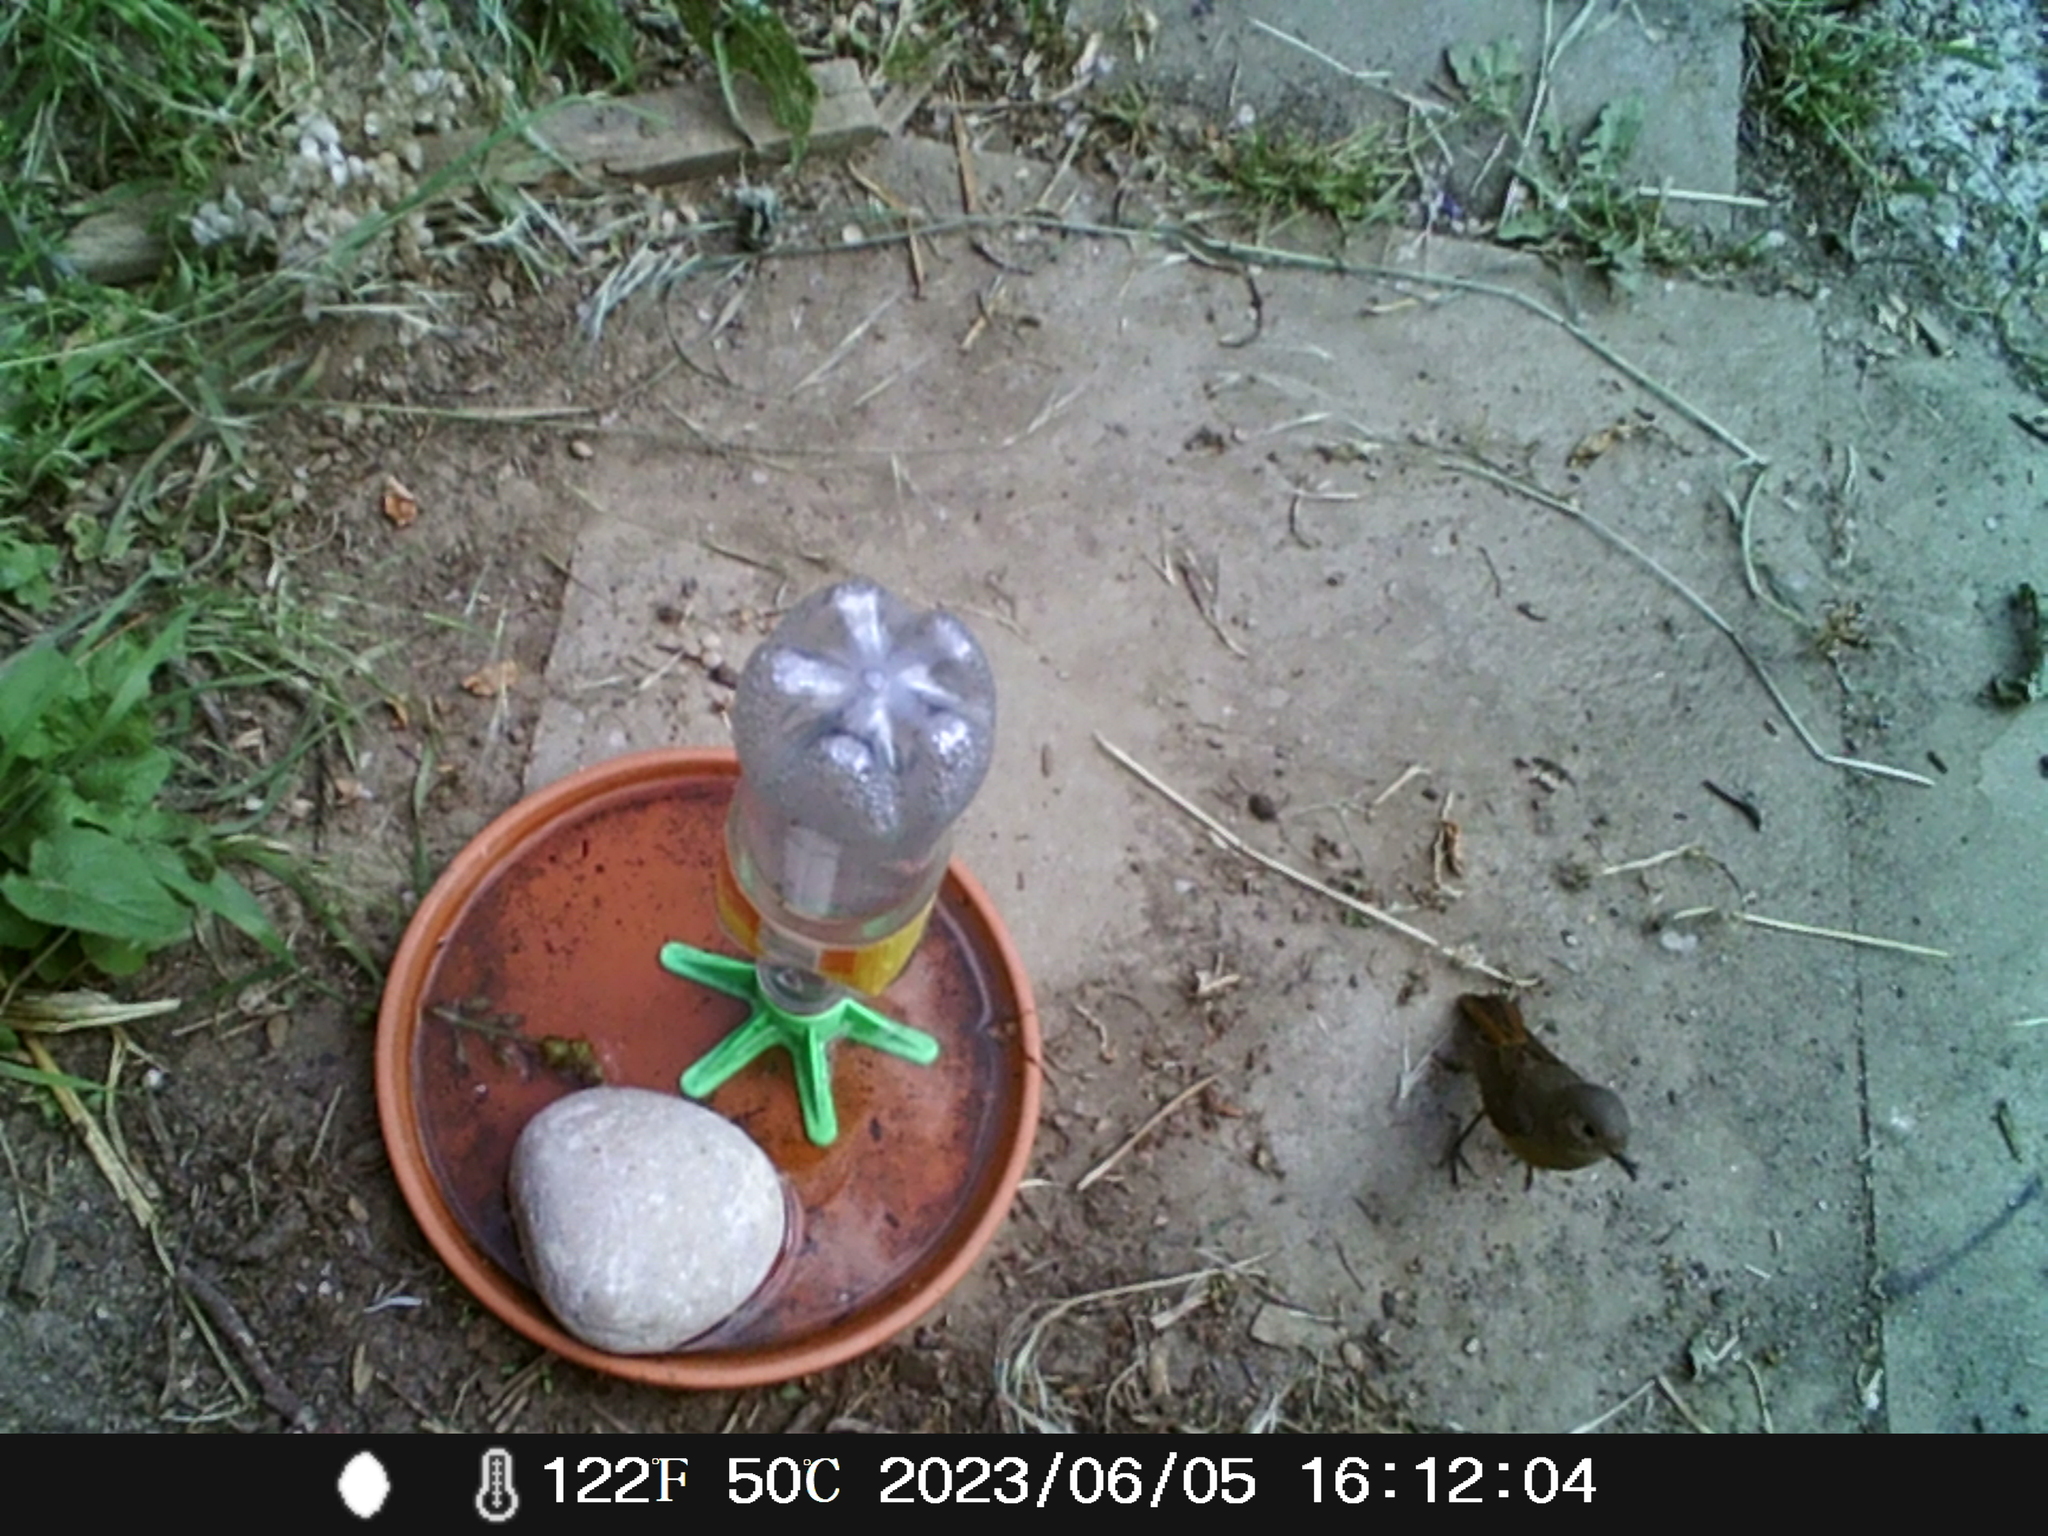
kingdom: Animalia
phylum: Chordata
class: Aves
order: Passeriformes
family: Muscicapidae
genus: Phoenicurus
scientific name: Phoenicurus ochruros
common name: Black redstart
